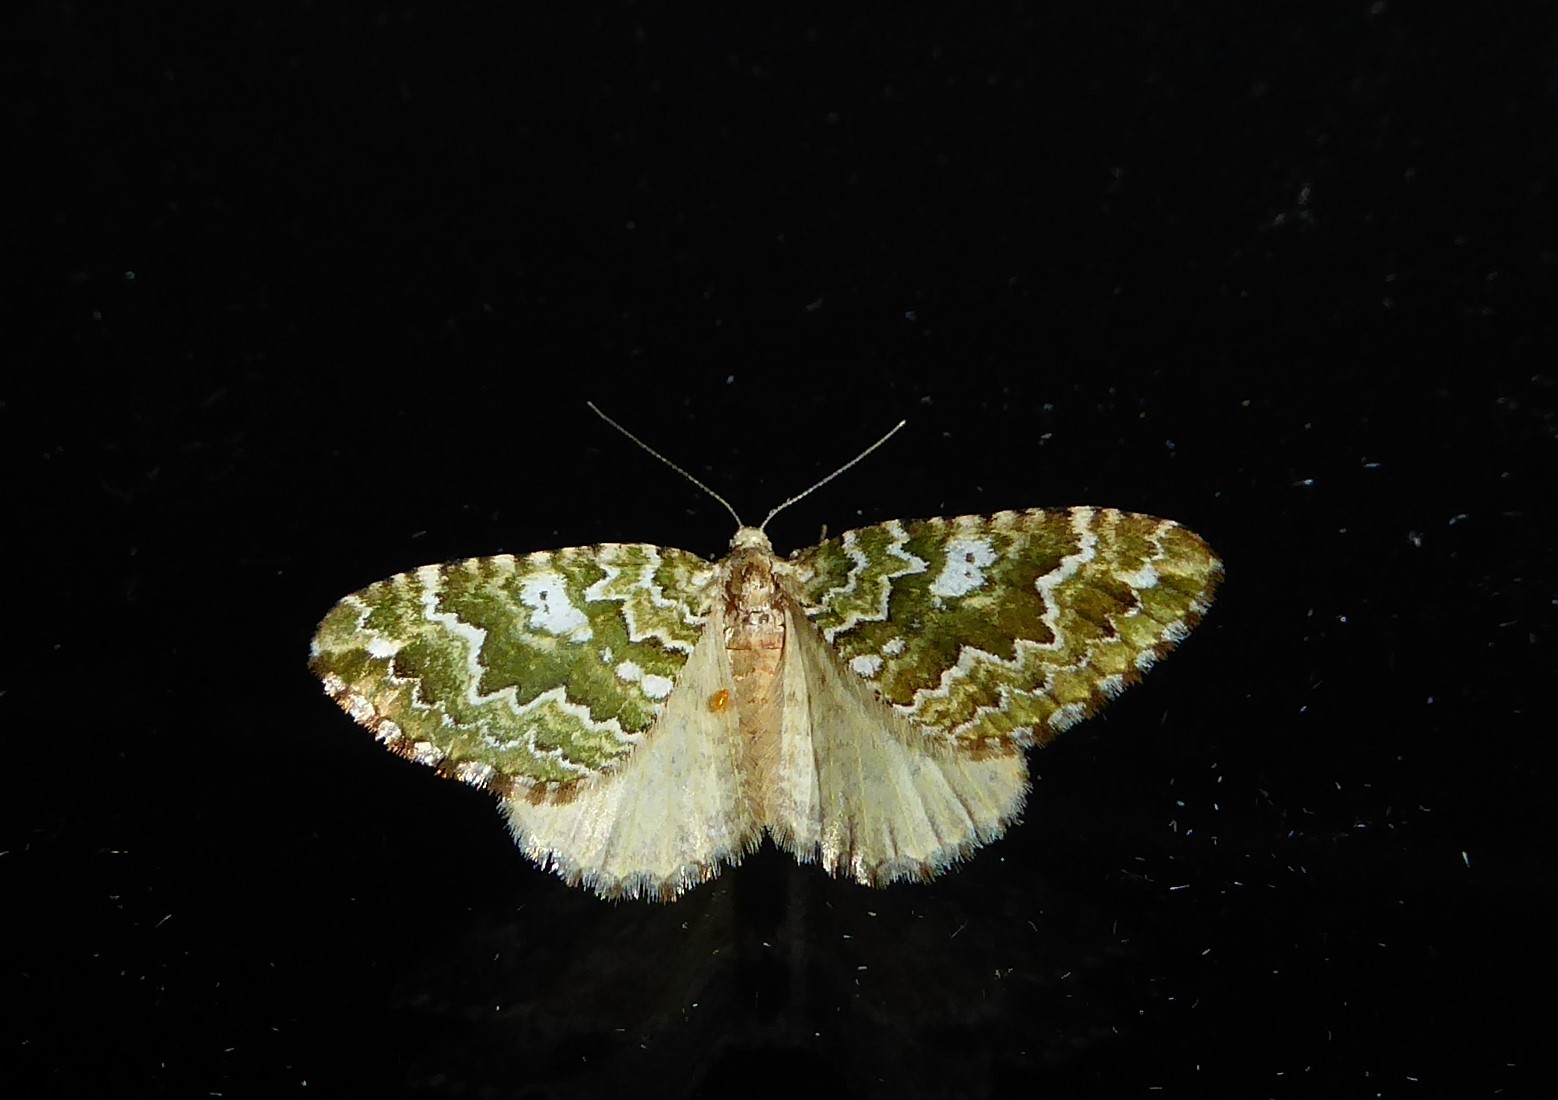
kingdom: Animalia
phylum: Arthropoda
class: Insecta
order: Lepidoptera
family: Geometridae
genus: Asaphodes
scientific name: Asaphodes beata
